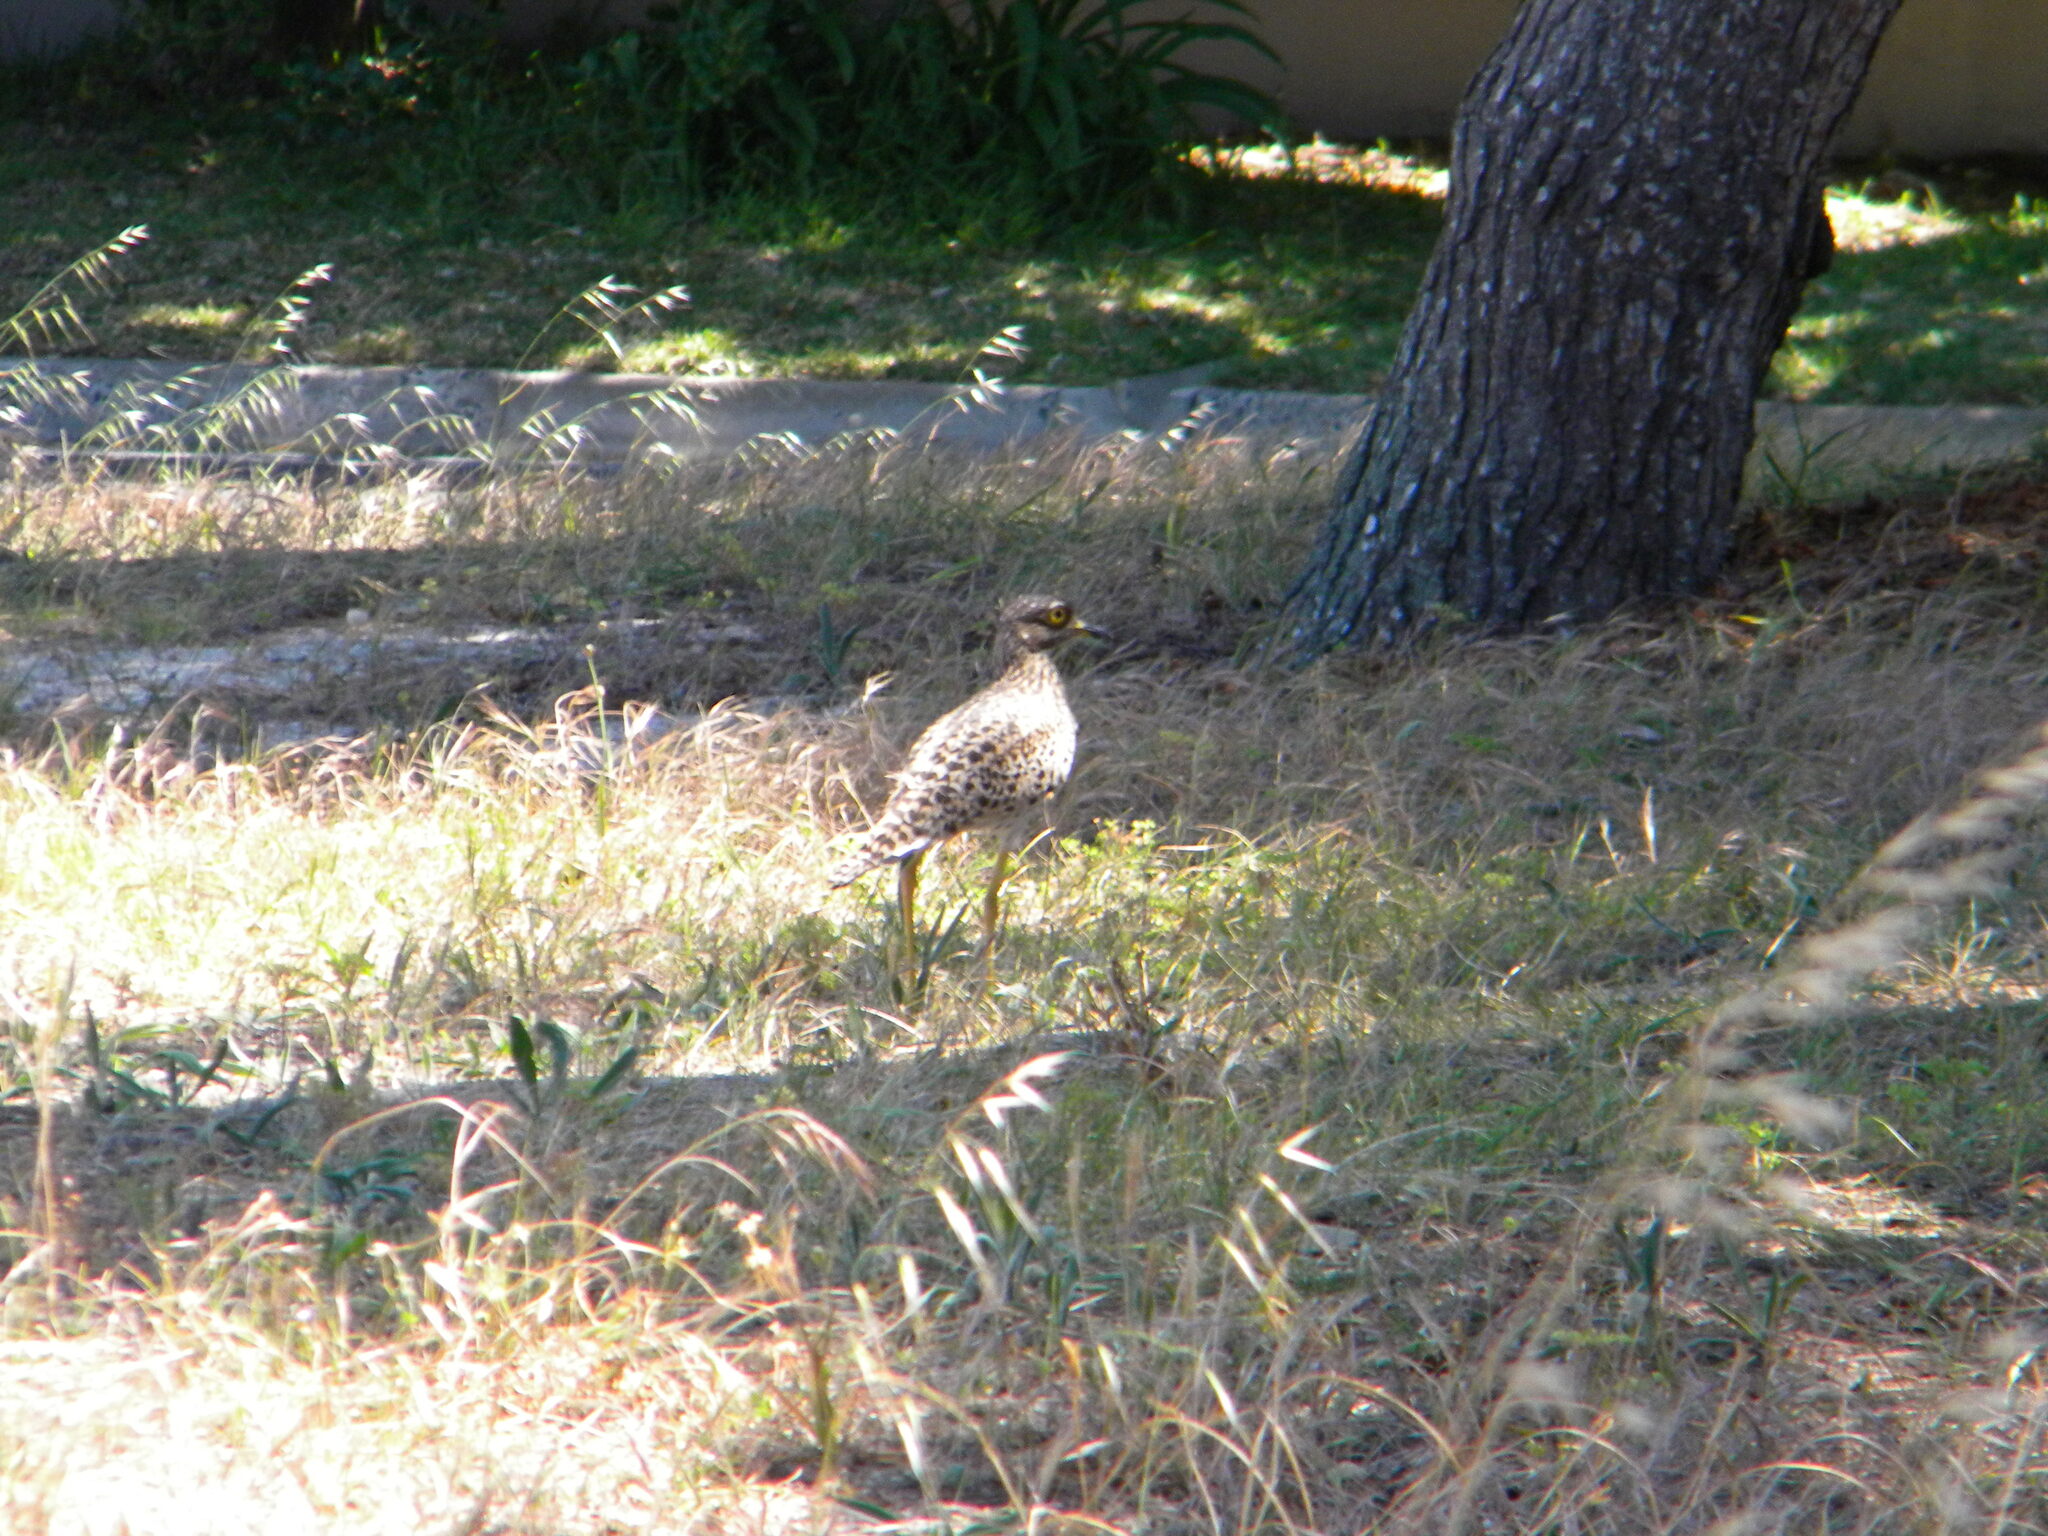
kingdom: Animalia
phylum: Chordata
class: Aves
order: Charadriiformes
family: Burhinidae
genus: Burhinus
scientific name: Burhinus capensis
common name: Spotted thick-knee
